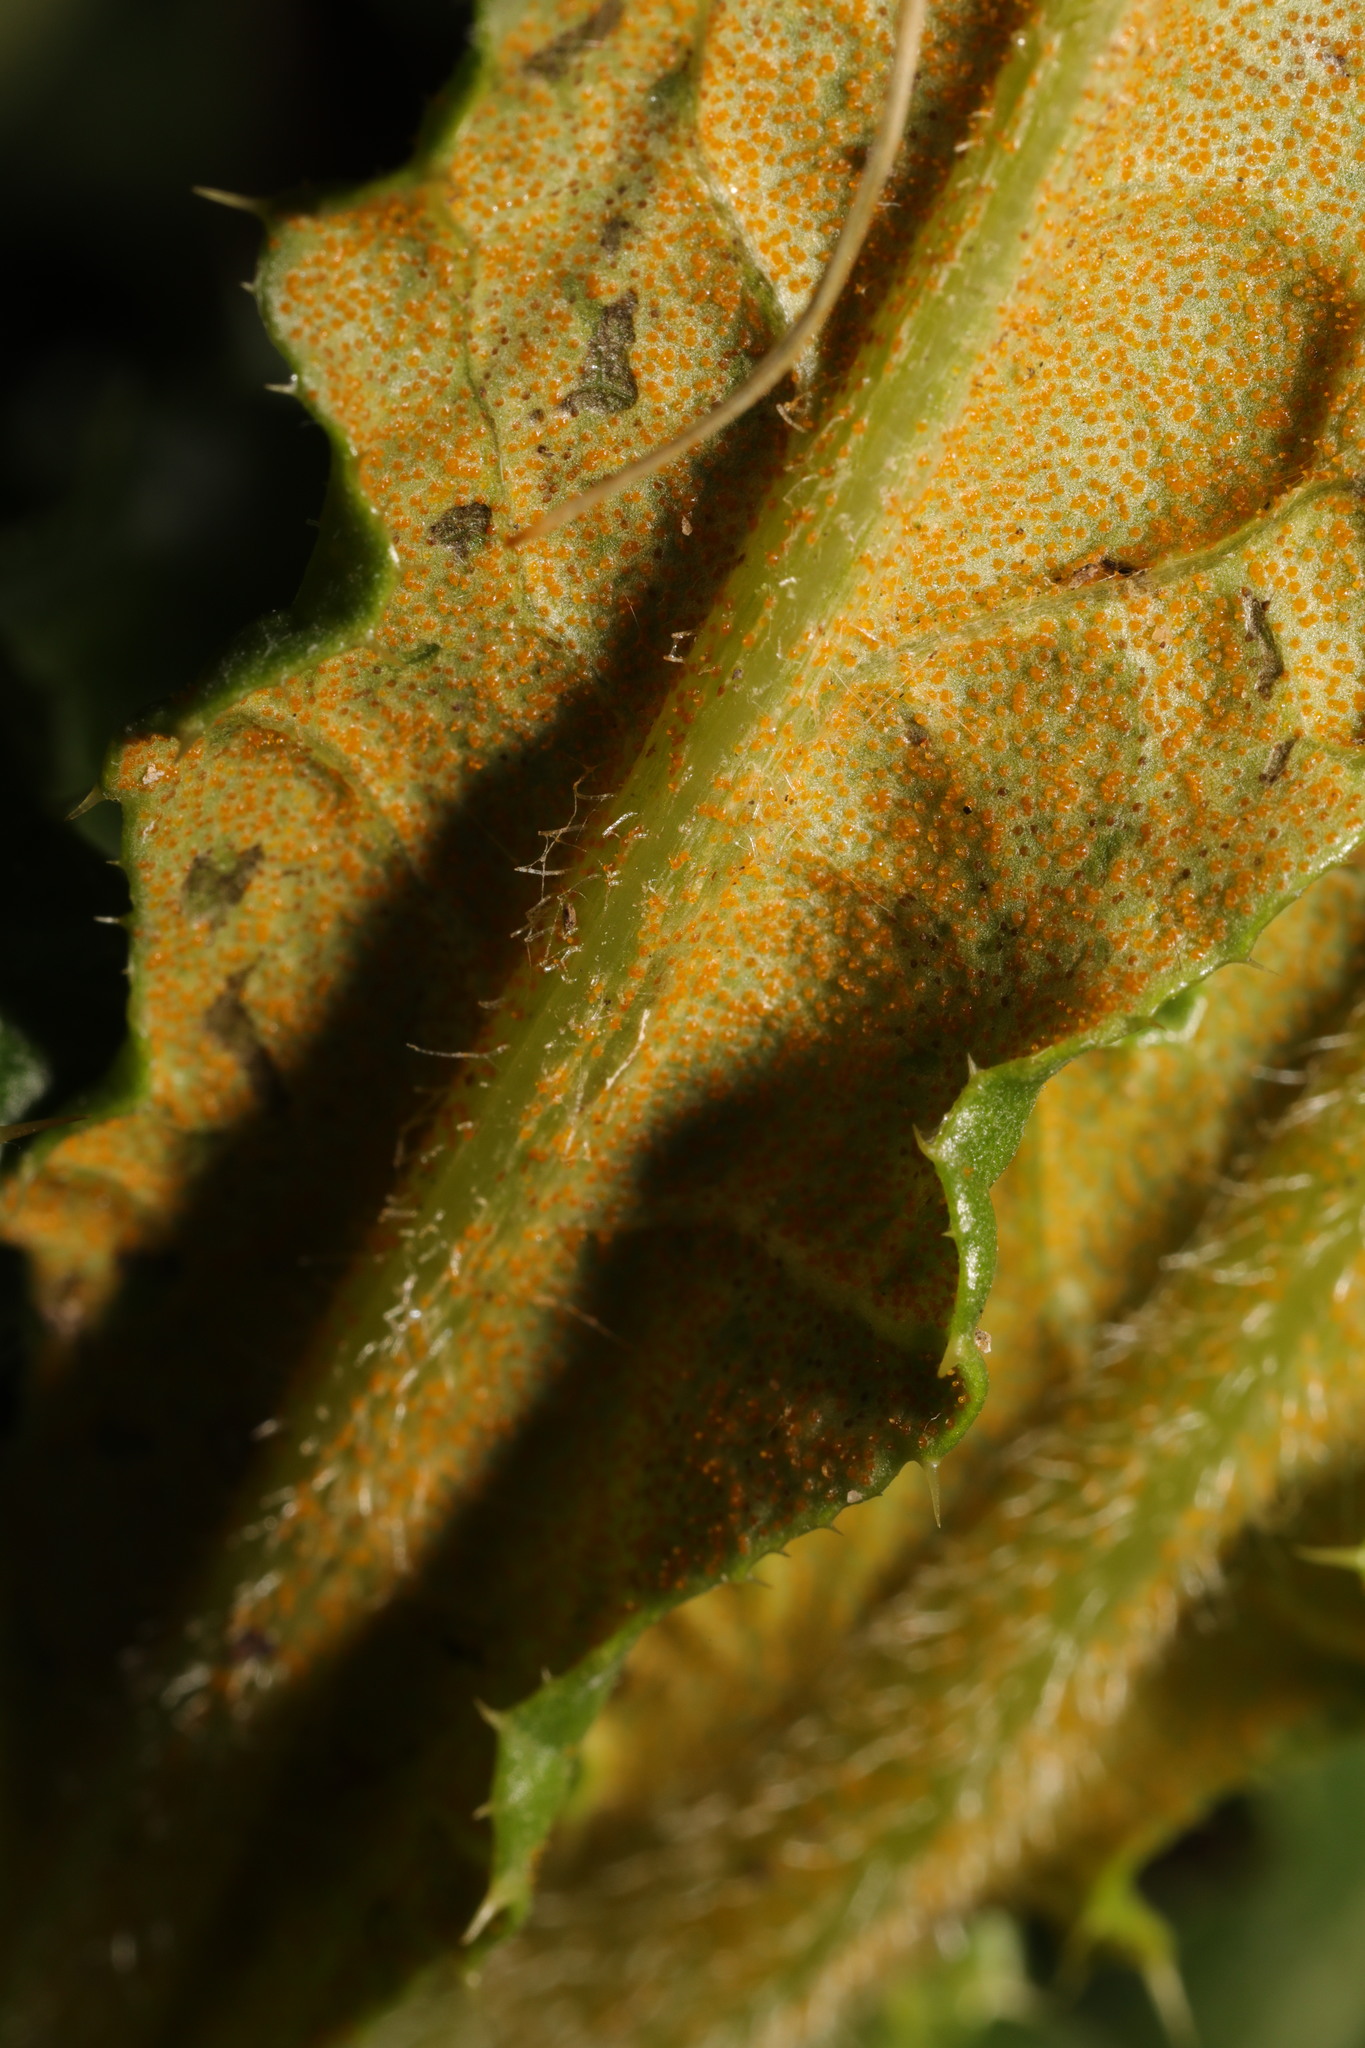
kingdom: Fungi
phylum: Basidiomycota
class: Pucciniomycetes
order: Pucciniales
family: Pucciniaceae
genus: Puccinia
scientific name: Puccinia suaveolens
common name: Thistle rust
